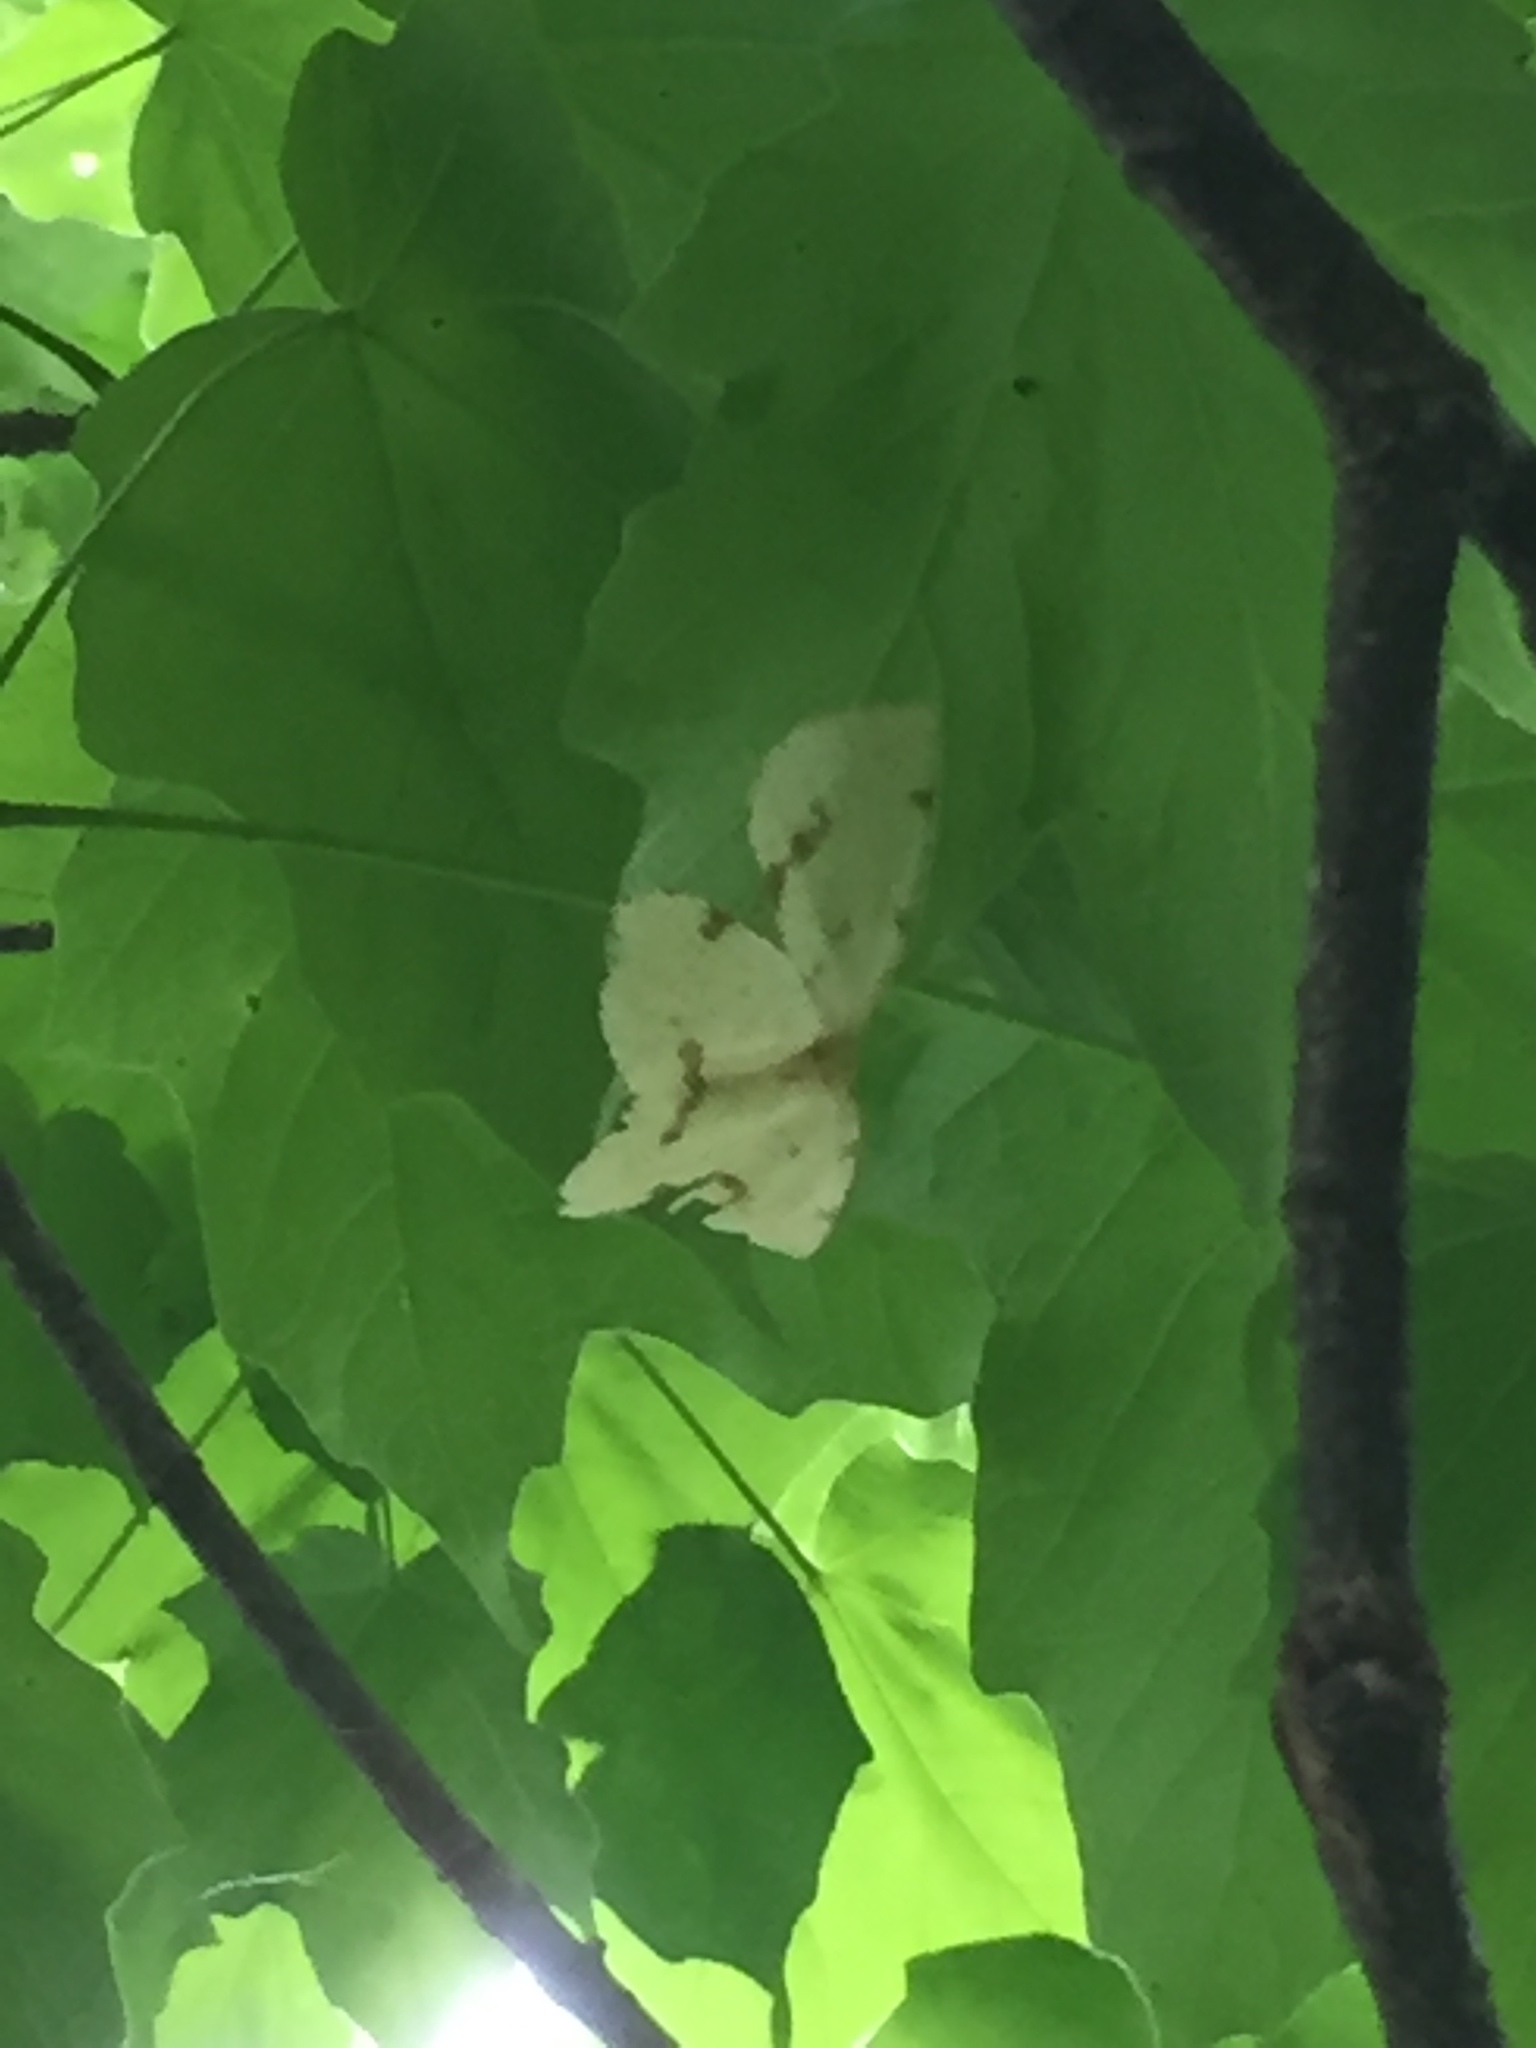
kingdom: Animalia
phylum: Arthropoda
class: Insecta
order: Lepidoptera
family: Geometridae
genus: Xanthotype
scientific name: Xanthotype
